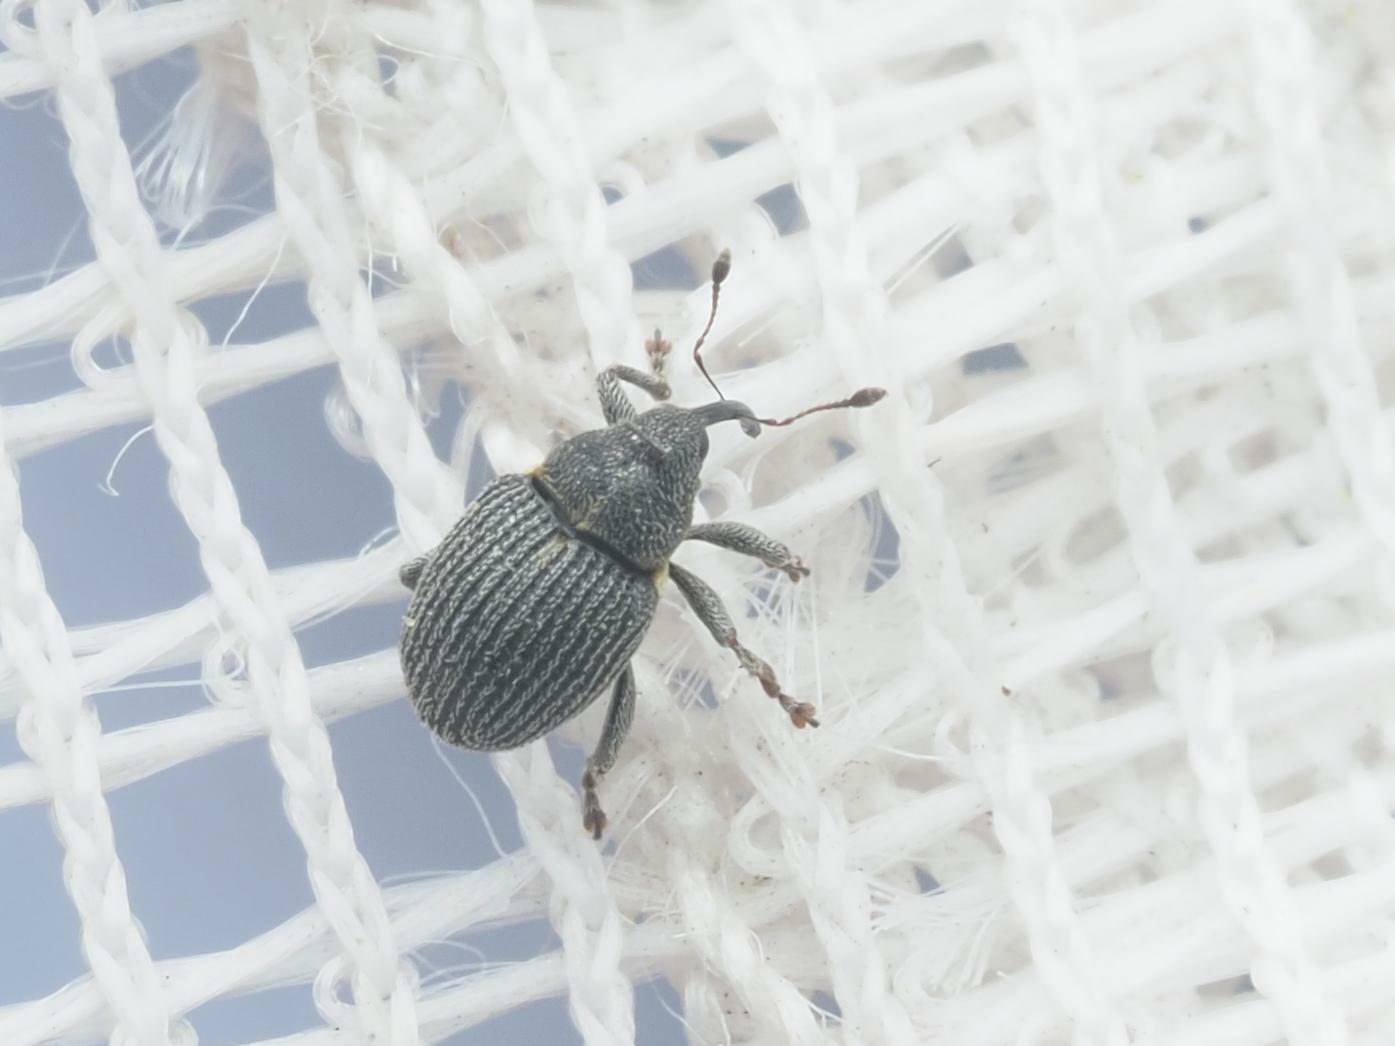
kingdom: Animalia
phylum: Arthropoda
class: Insecta
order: Coleoptera
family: Curculionidae
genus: Ceutorhynchus
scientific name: Ceutorhynchus constrictus
